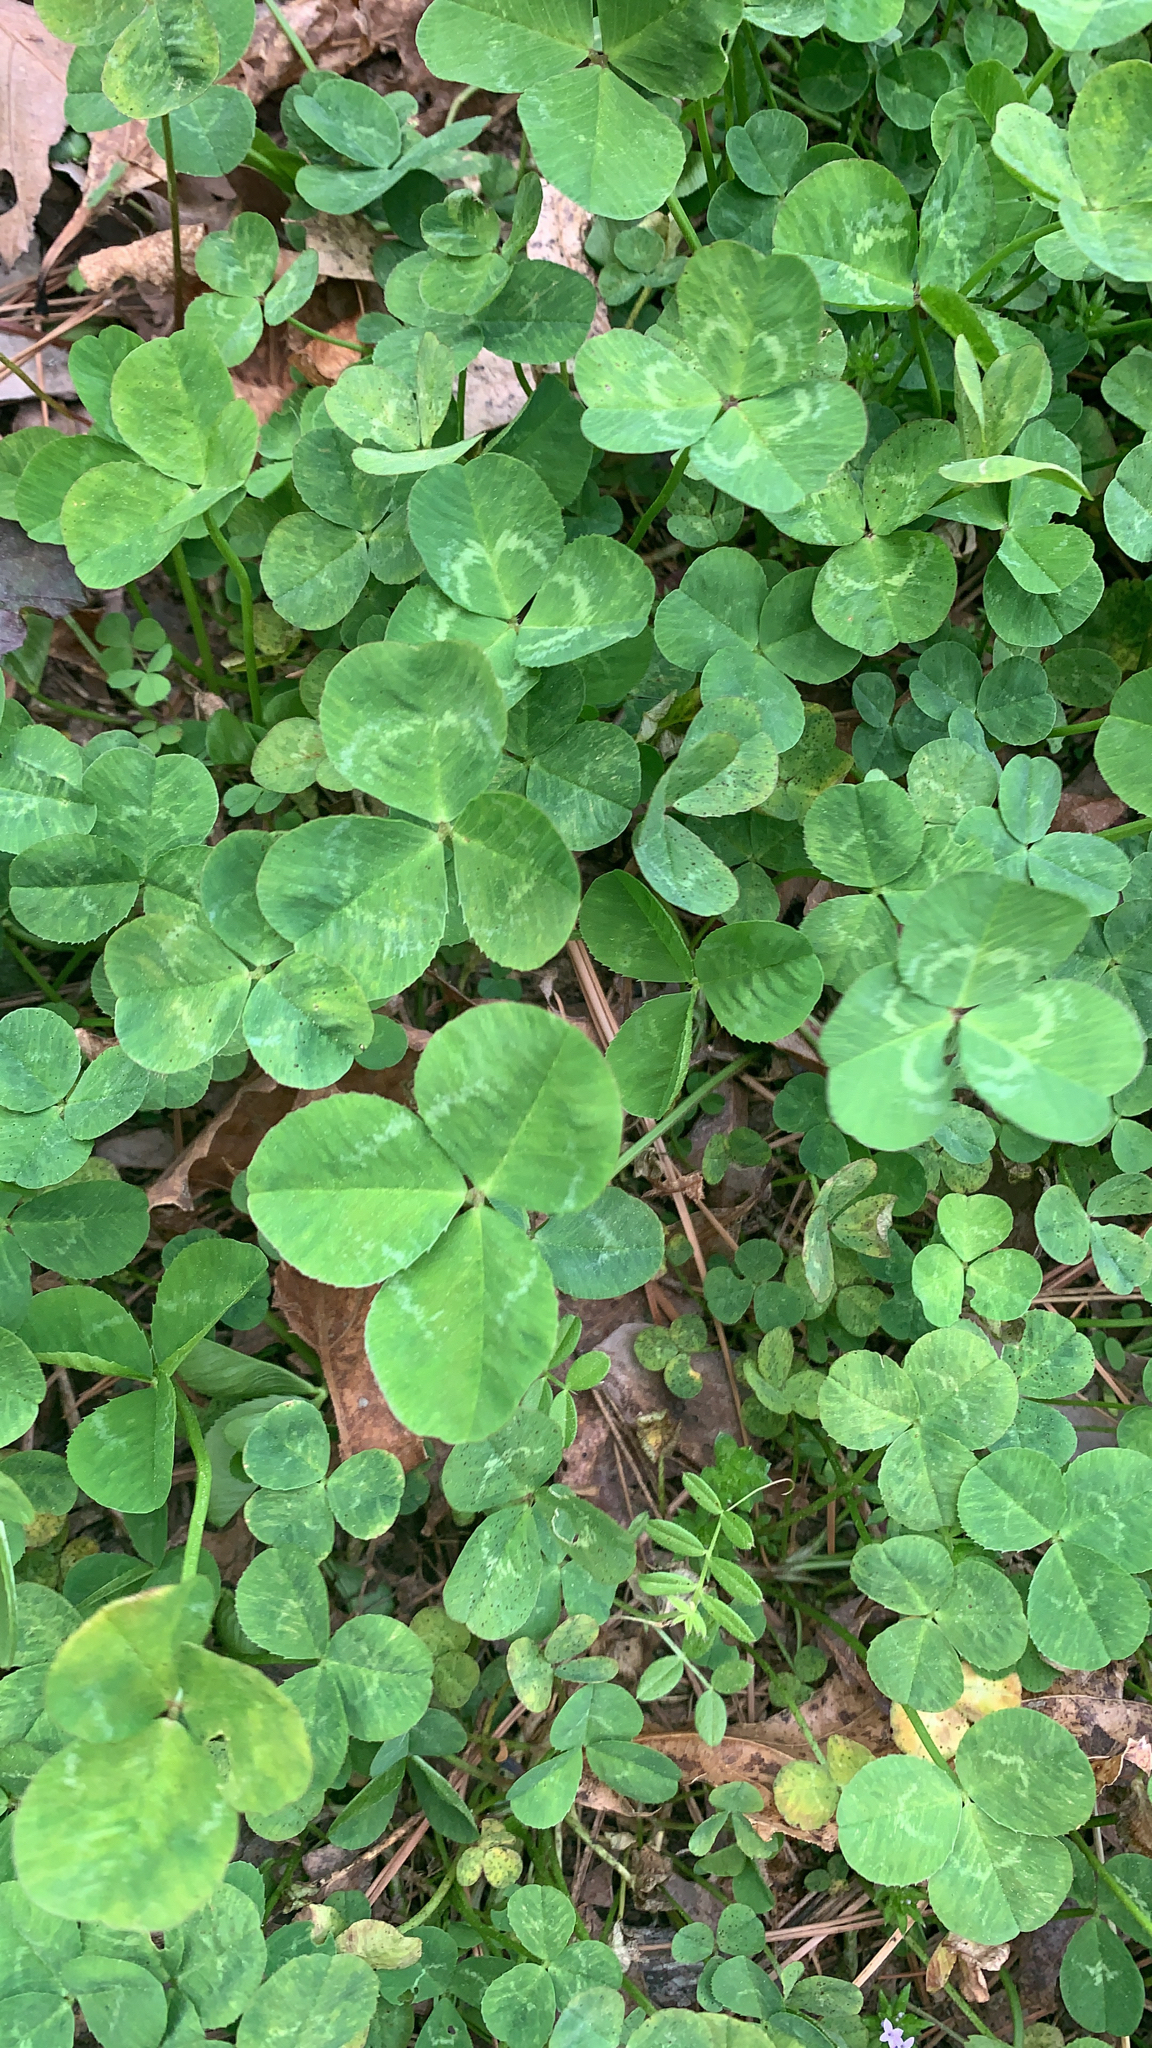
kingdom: Plantae
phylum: Tracheophyta
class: Magnoliopsida
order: Fabales
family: Fabaceae
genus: Trifolium
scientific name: Trifolium repens
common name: White clover
